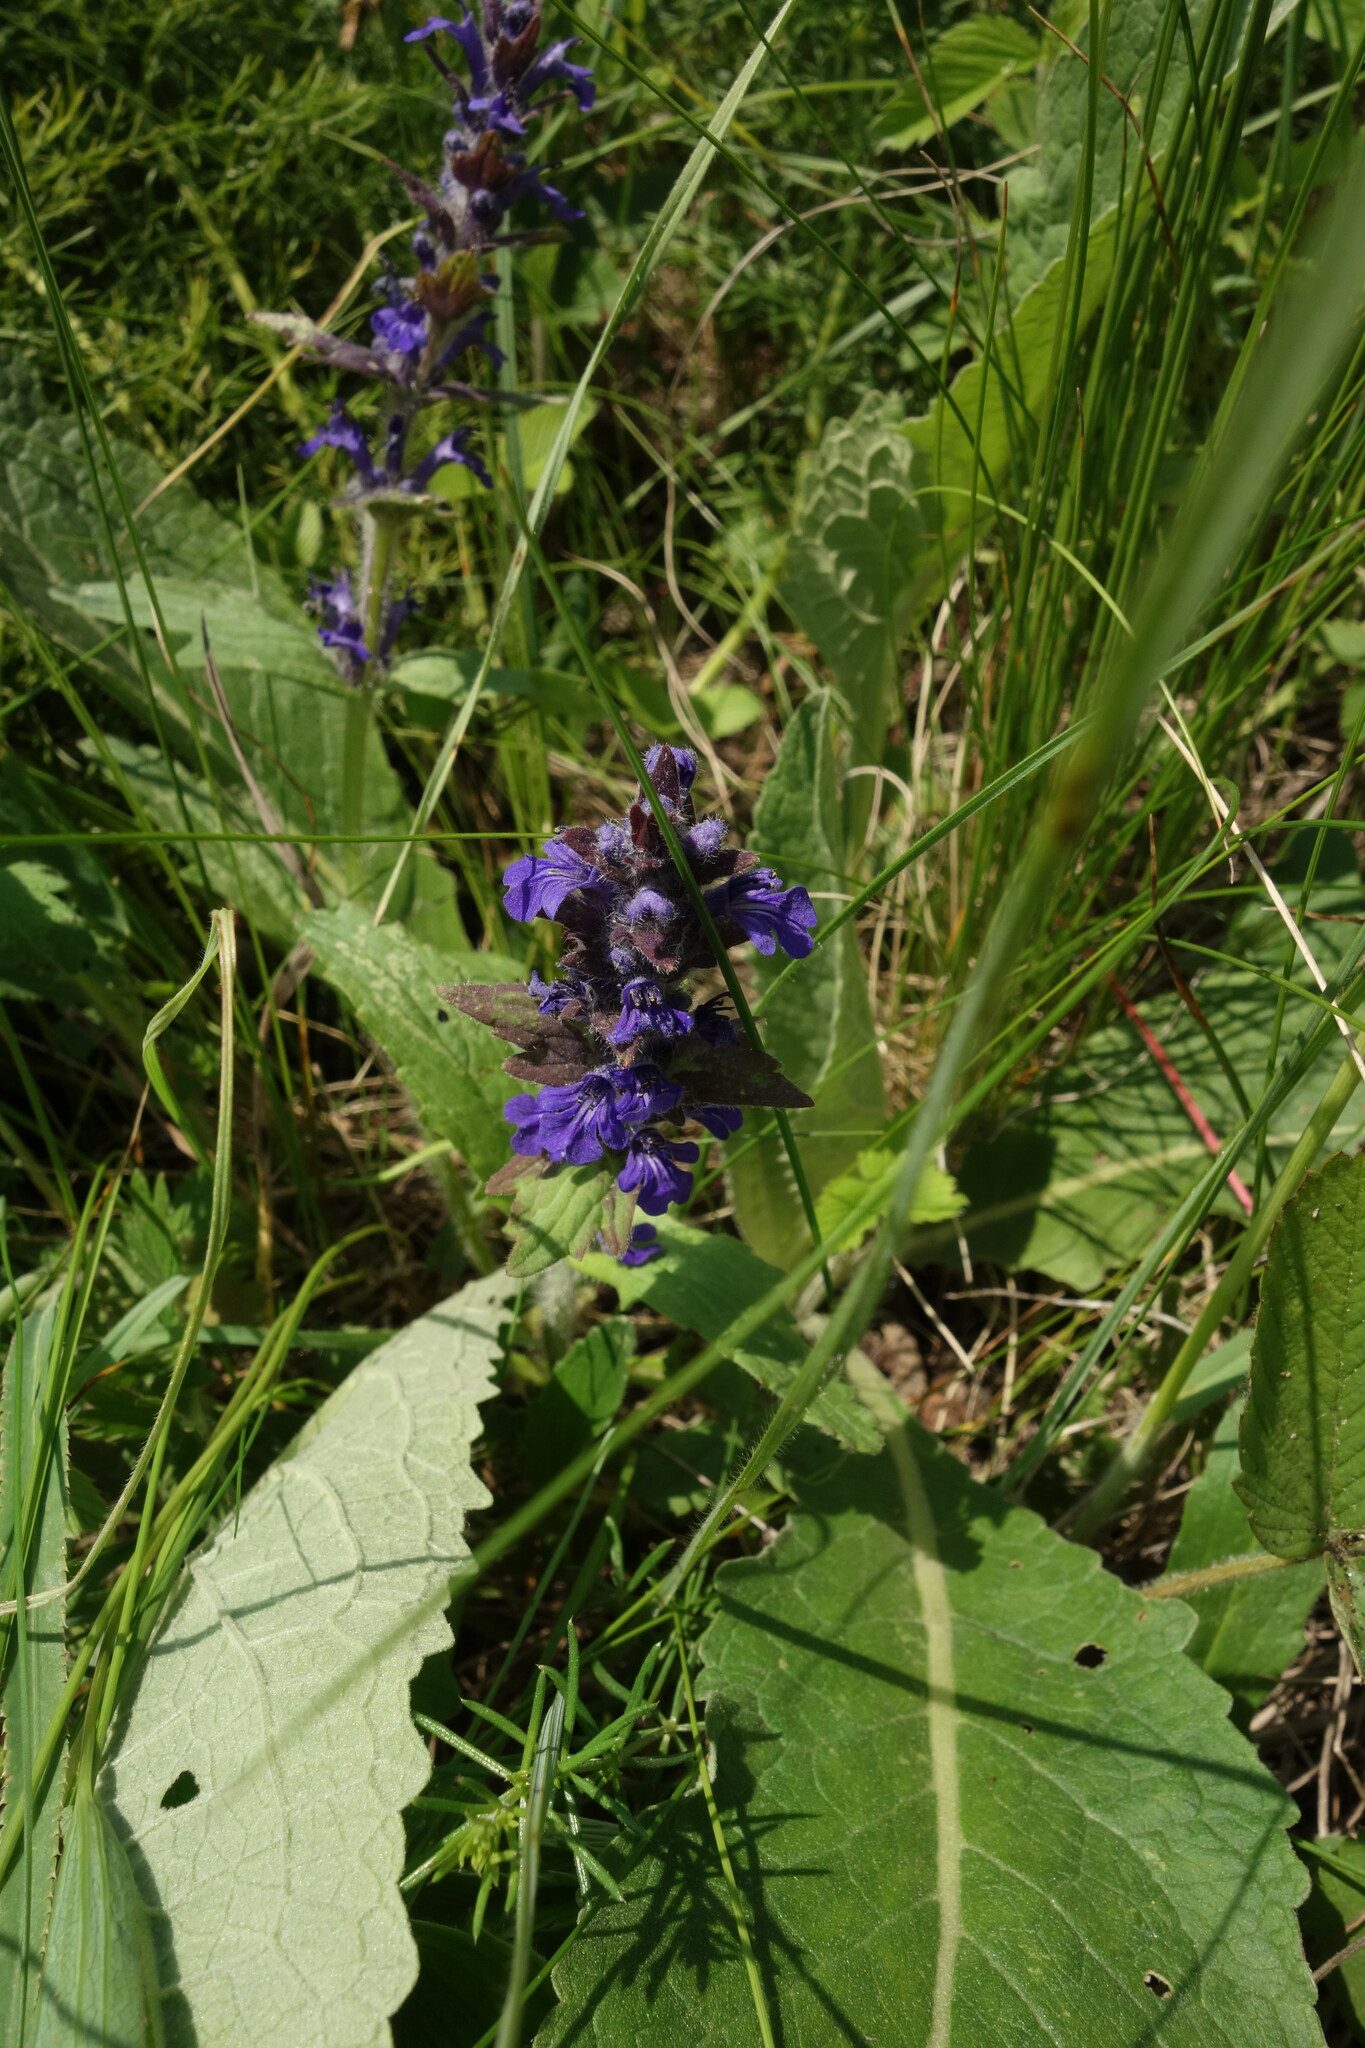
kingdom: Plantae
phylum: Tracheophyta
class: Magnoliopsida
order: Lamiales
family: Lamiaceae
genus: Ajuga
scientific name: Ajuga genevensis
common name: Blue bugle
